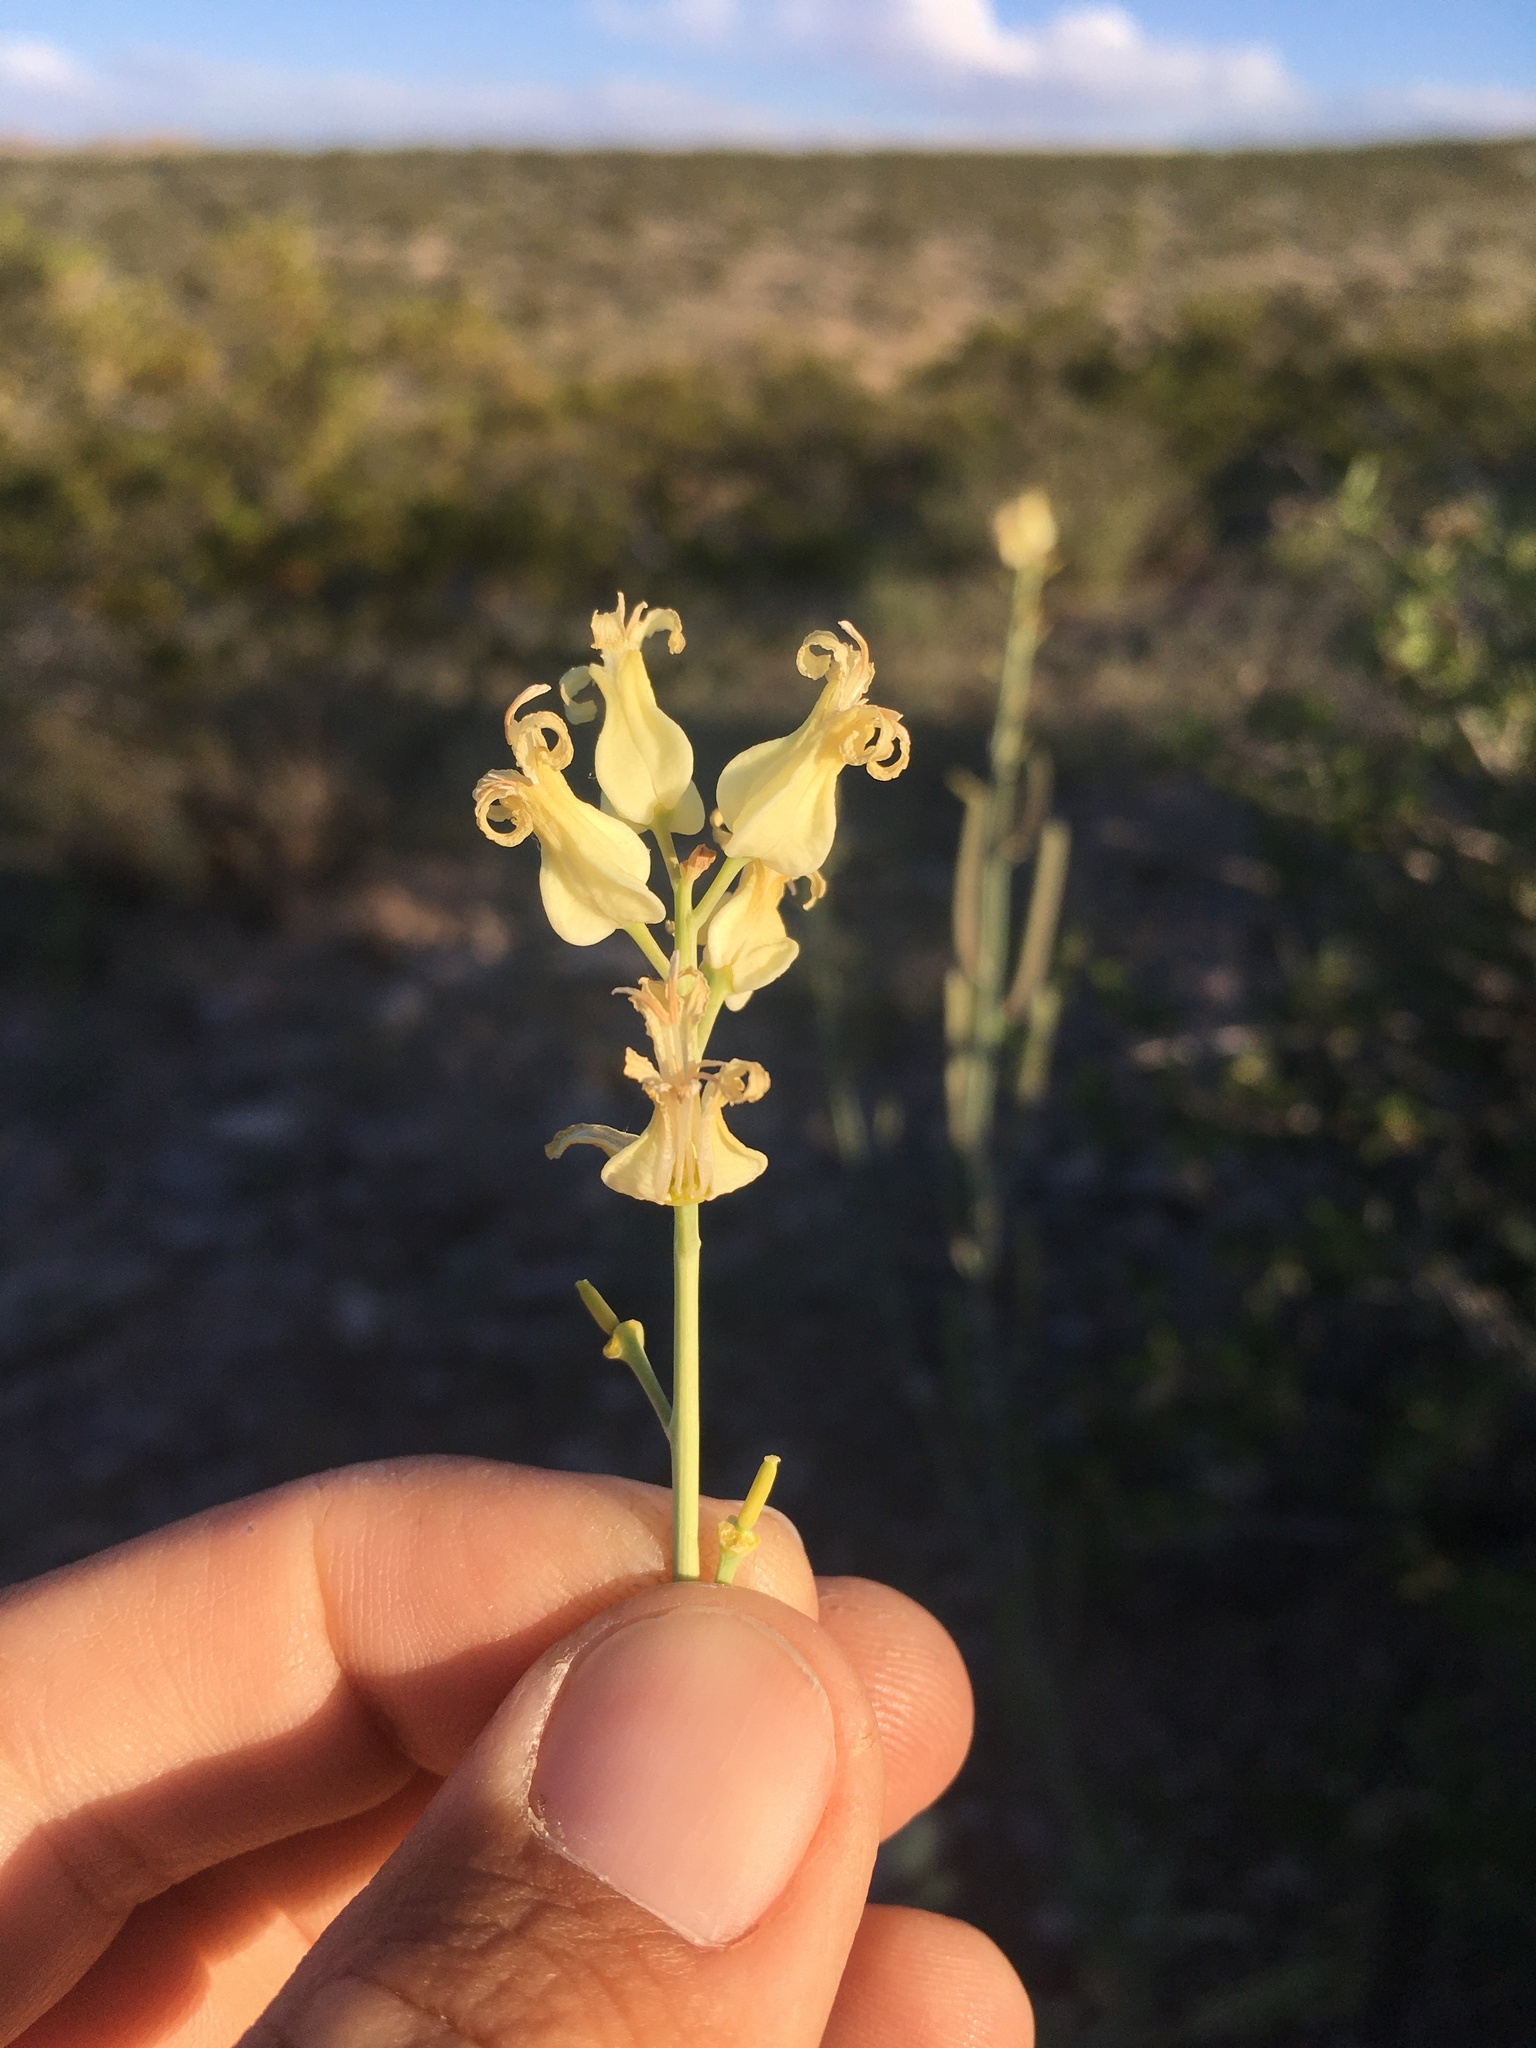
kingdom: Plantae
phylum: Tracheophyta
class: Magnoliopsida
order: Brassicales
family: Brassicaceae
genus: Streptanthus
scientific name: Streptanthus carinatus
